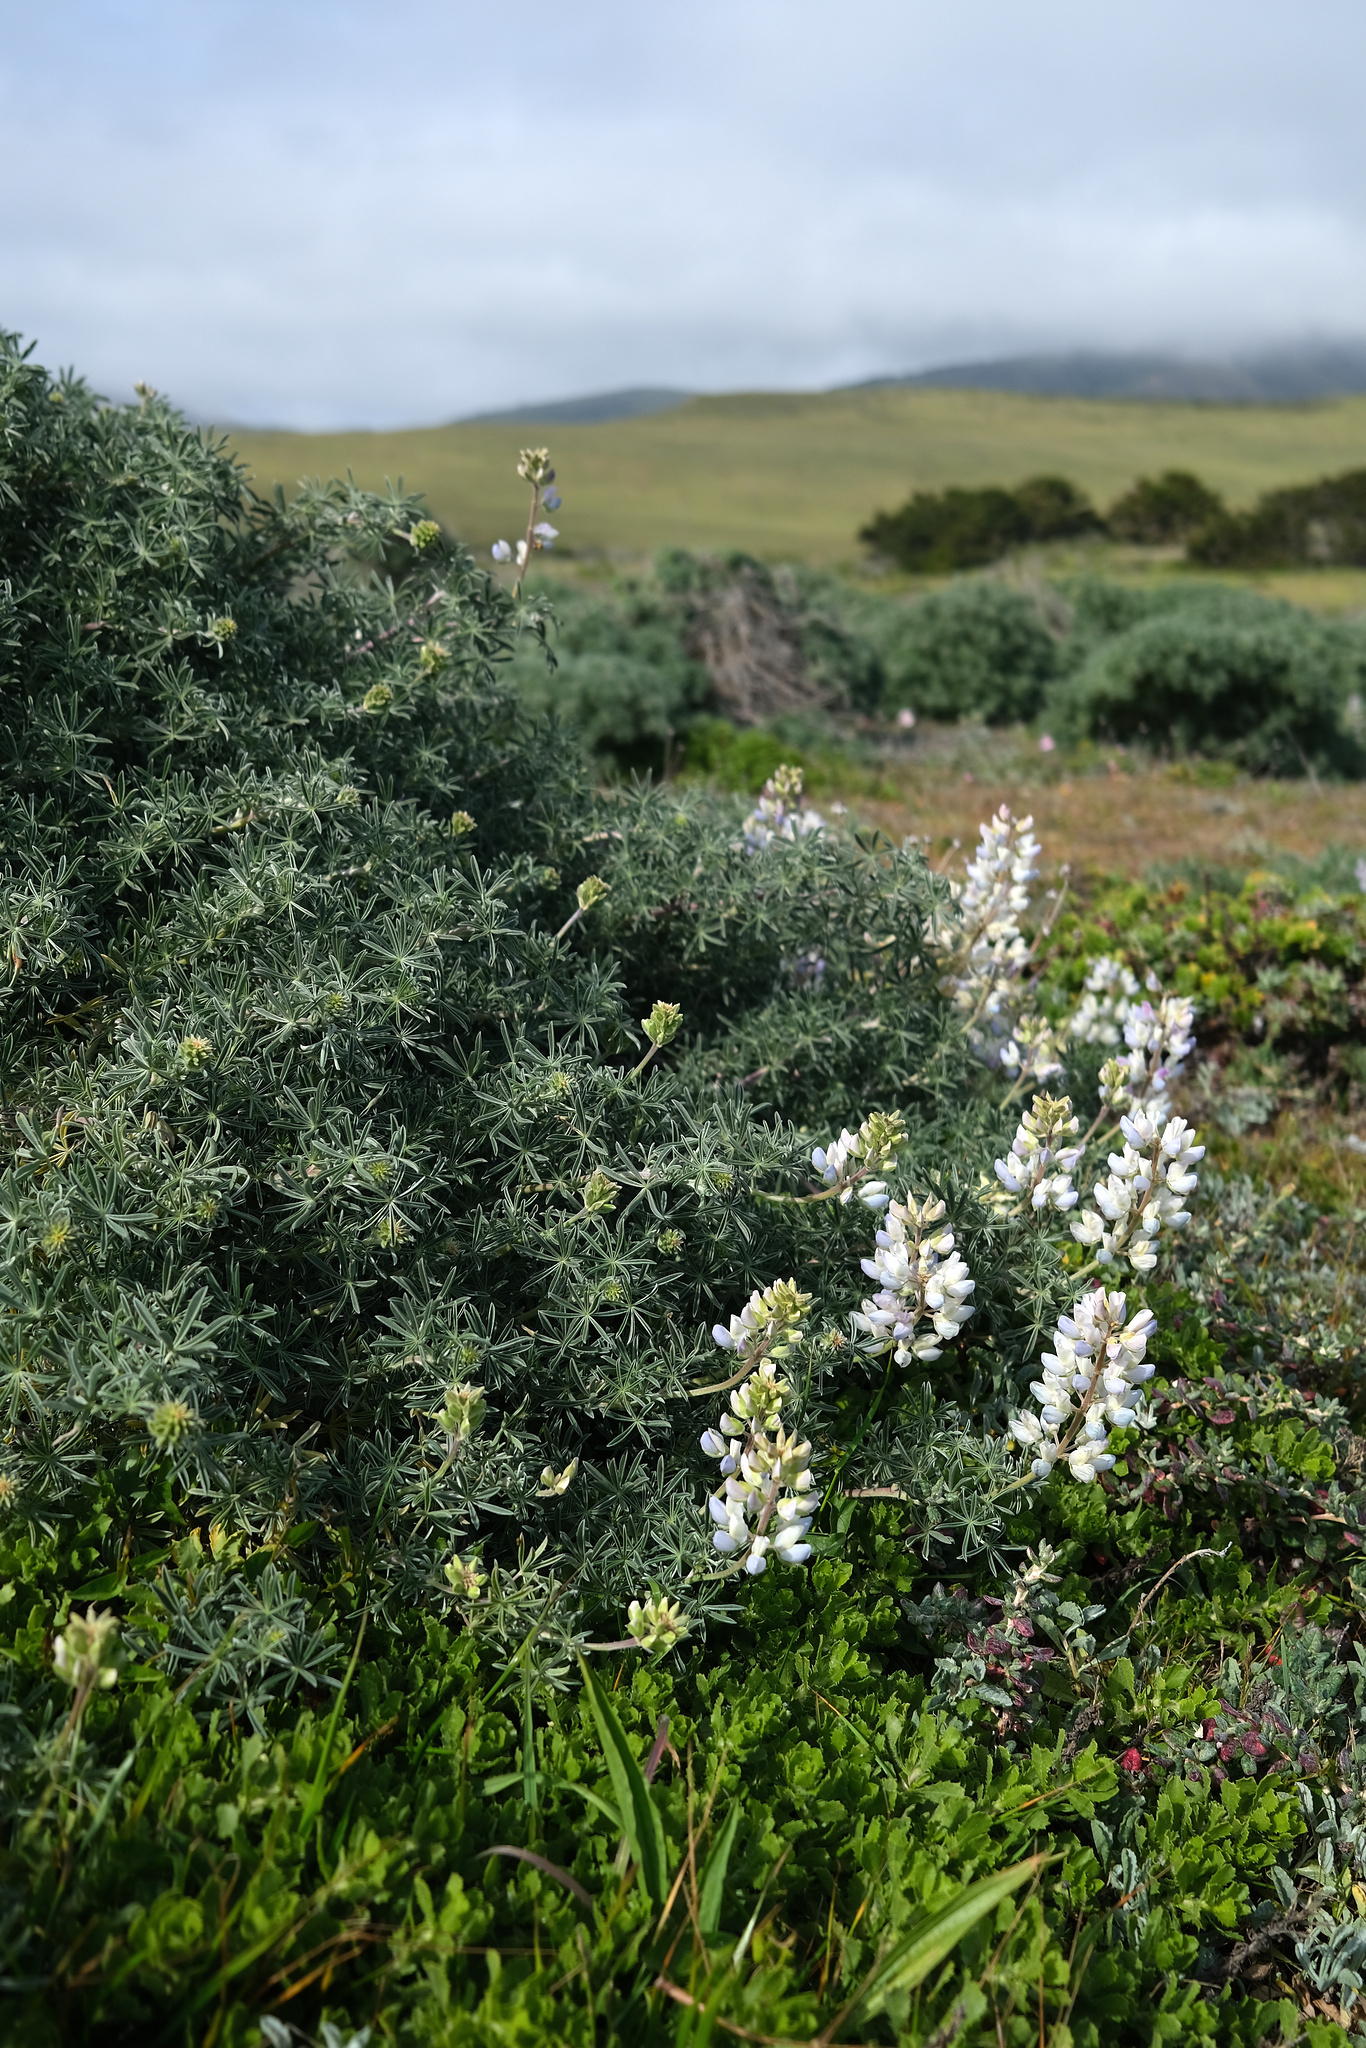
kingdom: Plantae
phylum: Tracheophyta
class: Magnoliopsida
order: Fabales
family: Fabaceae
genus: Lupinus
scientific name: Lupinus arboreus
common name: Yellow bush lupine
